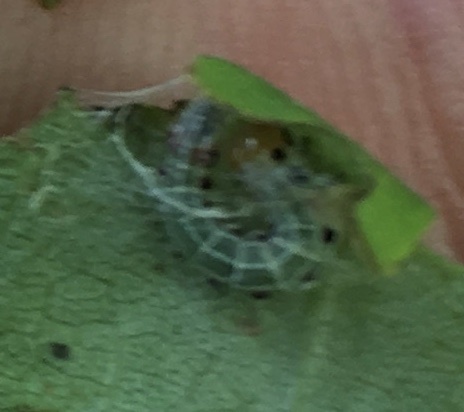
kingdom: Animalia
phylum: Arthropoda
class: Insecta
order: Lepidoptera
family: Noctuidae
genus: Achatia
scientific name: Achatia confusa
